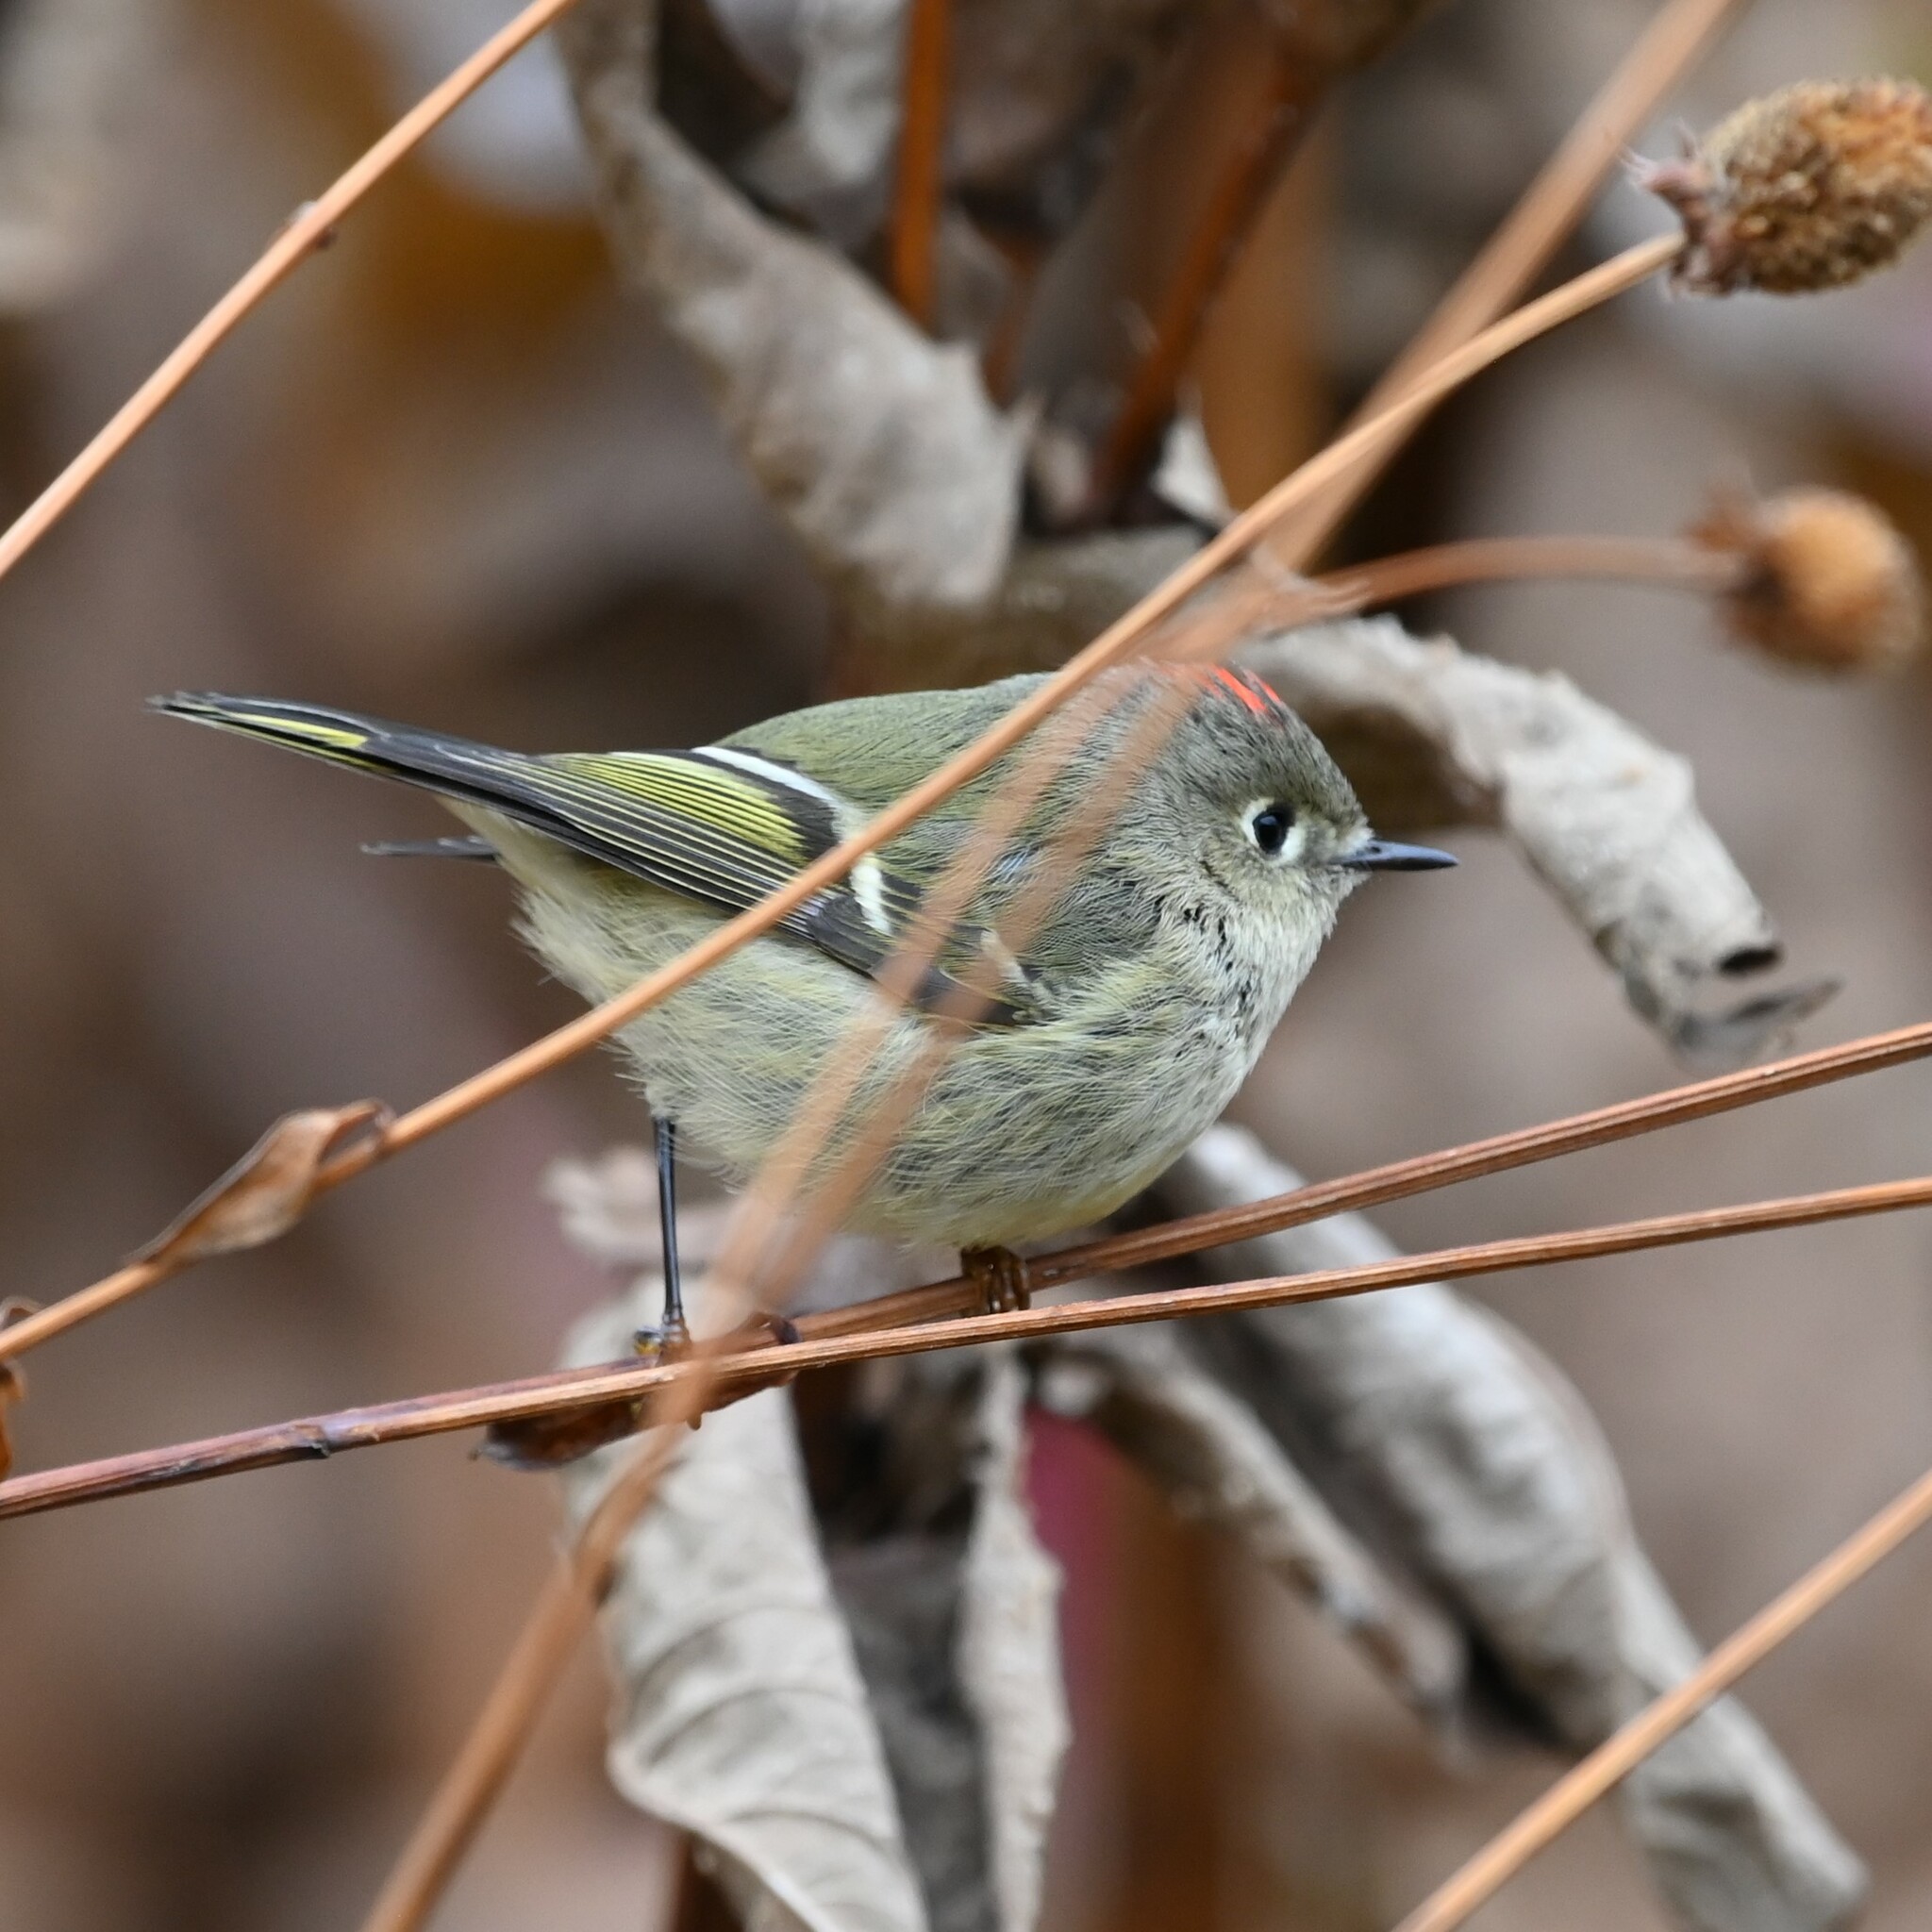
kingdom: Animalia
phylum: Chordata
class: Aves
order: Passeriformes
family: Regulidae
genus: Regulus
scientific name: Regulus calendula
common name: Ruby-crowned kinglet
